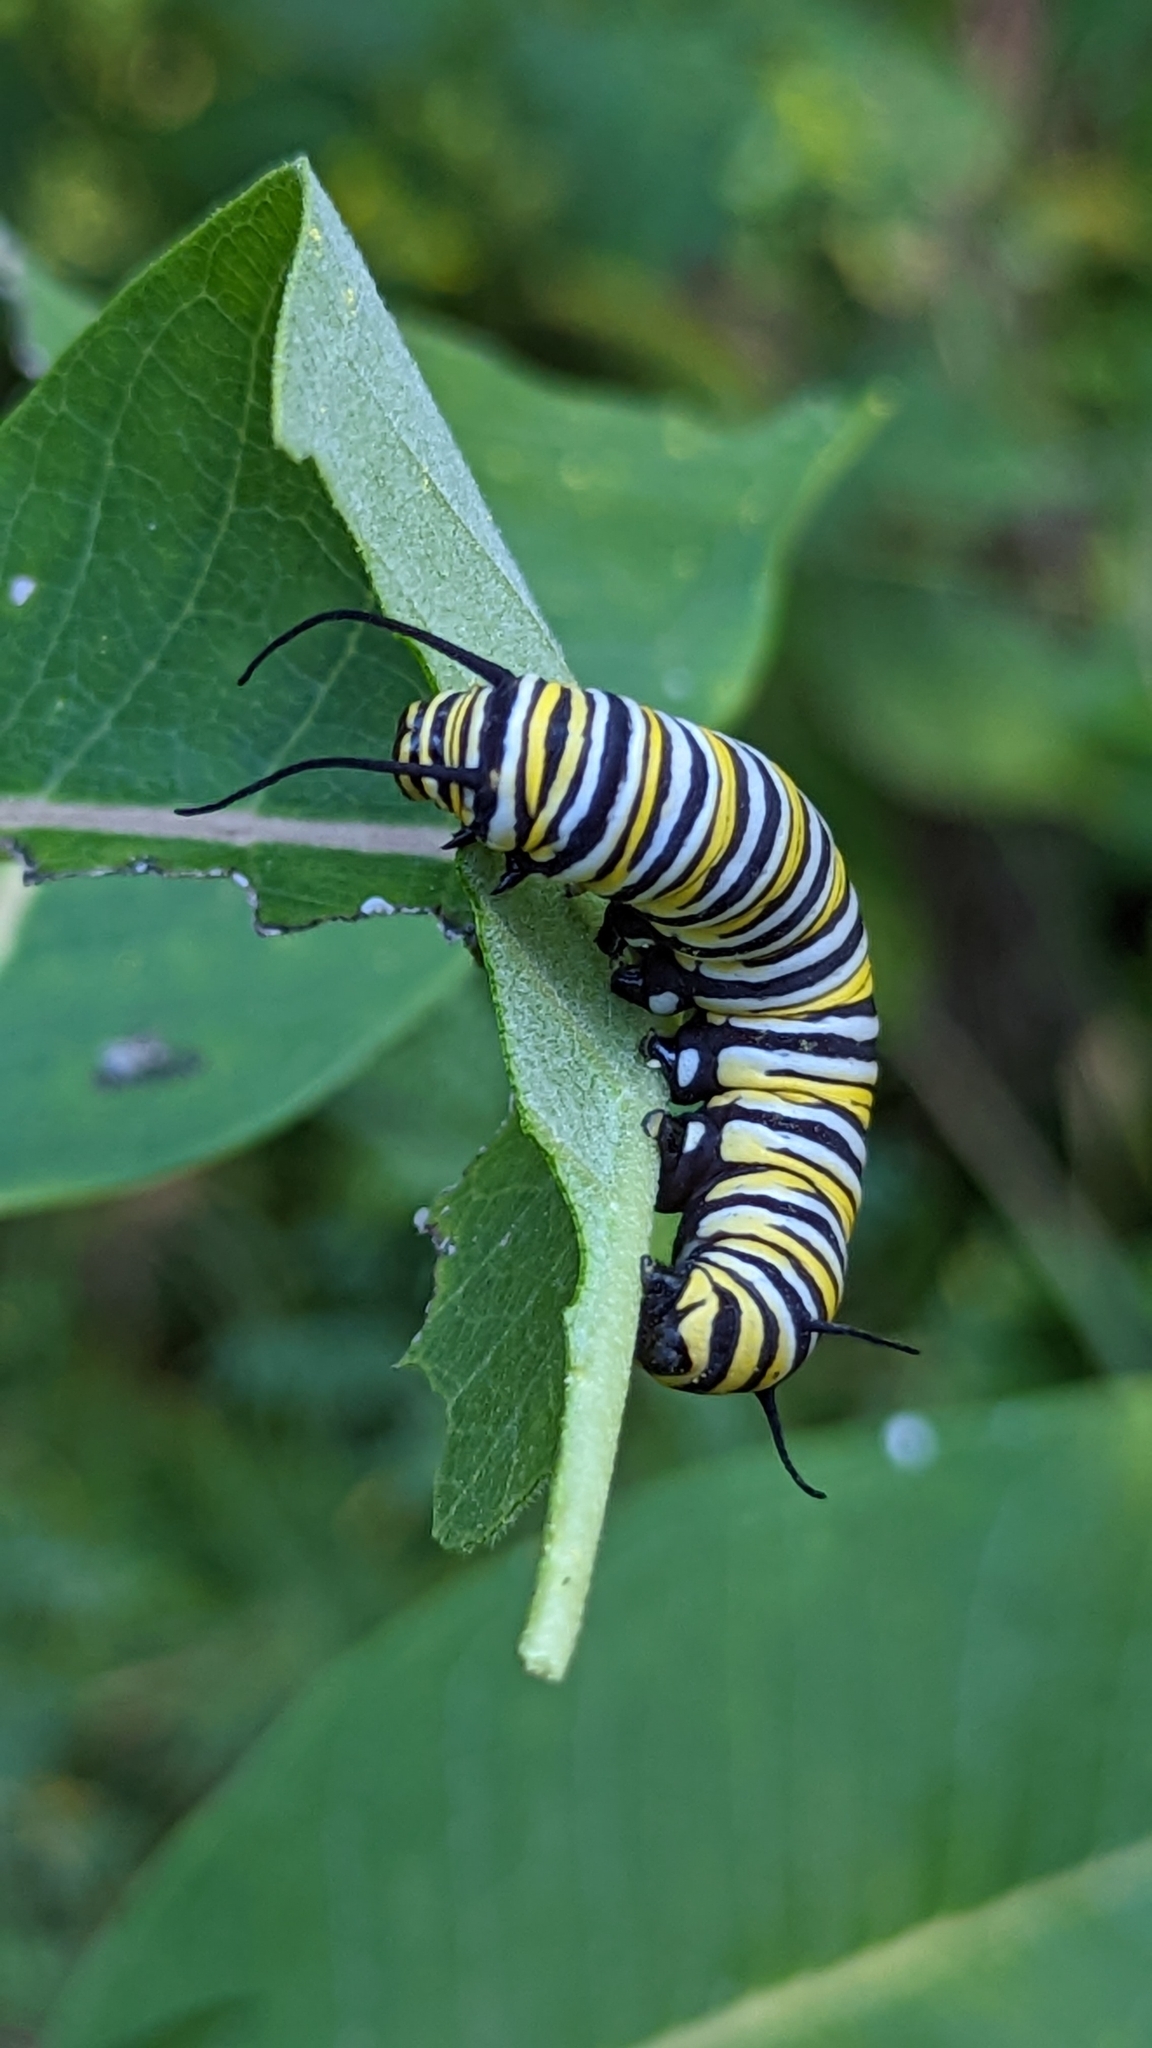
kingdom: Animalia
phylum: Arthropoda
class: Insecta
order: Lepidoptera
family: Nymphalidae
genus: Danaus
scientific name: Danaus plexippus
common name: Monarch
